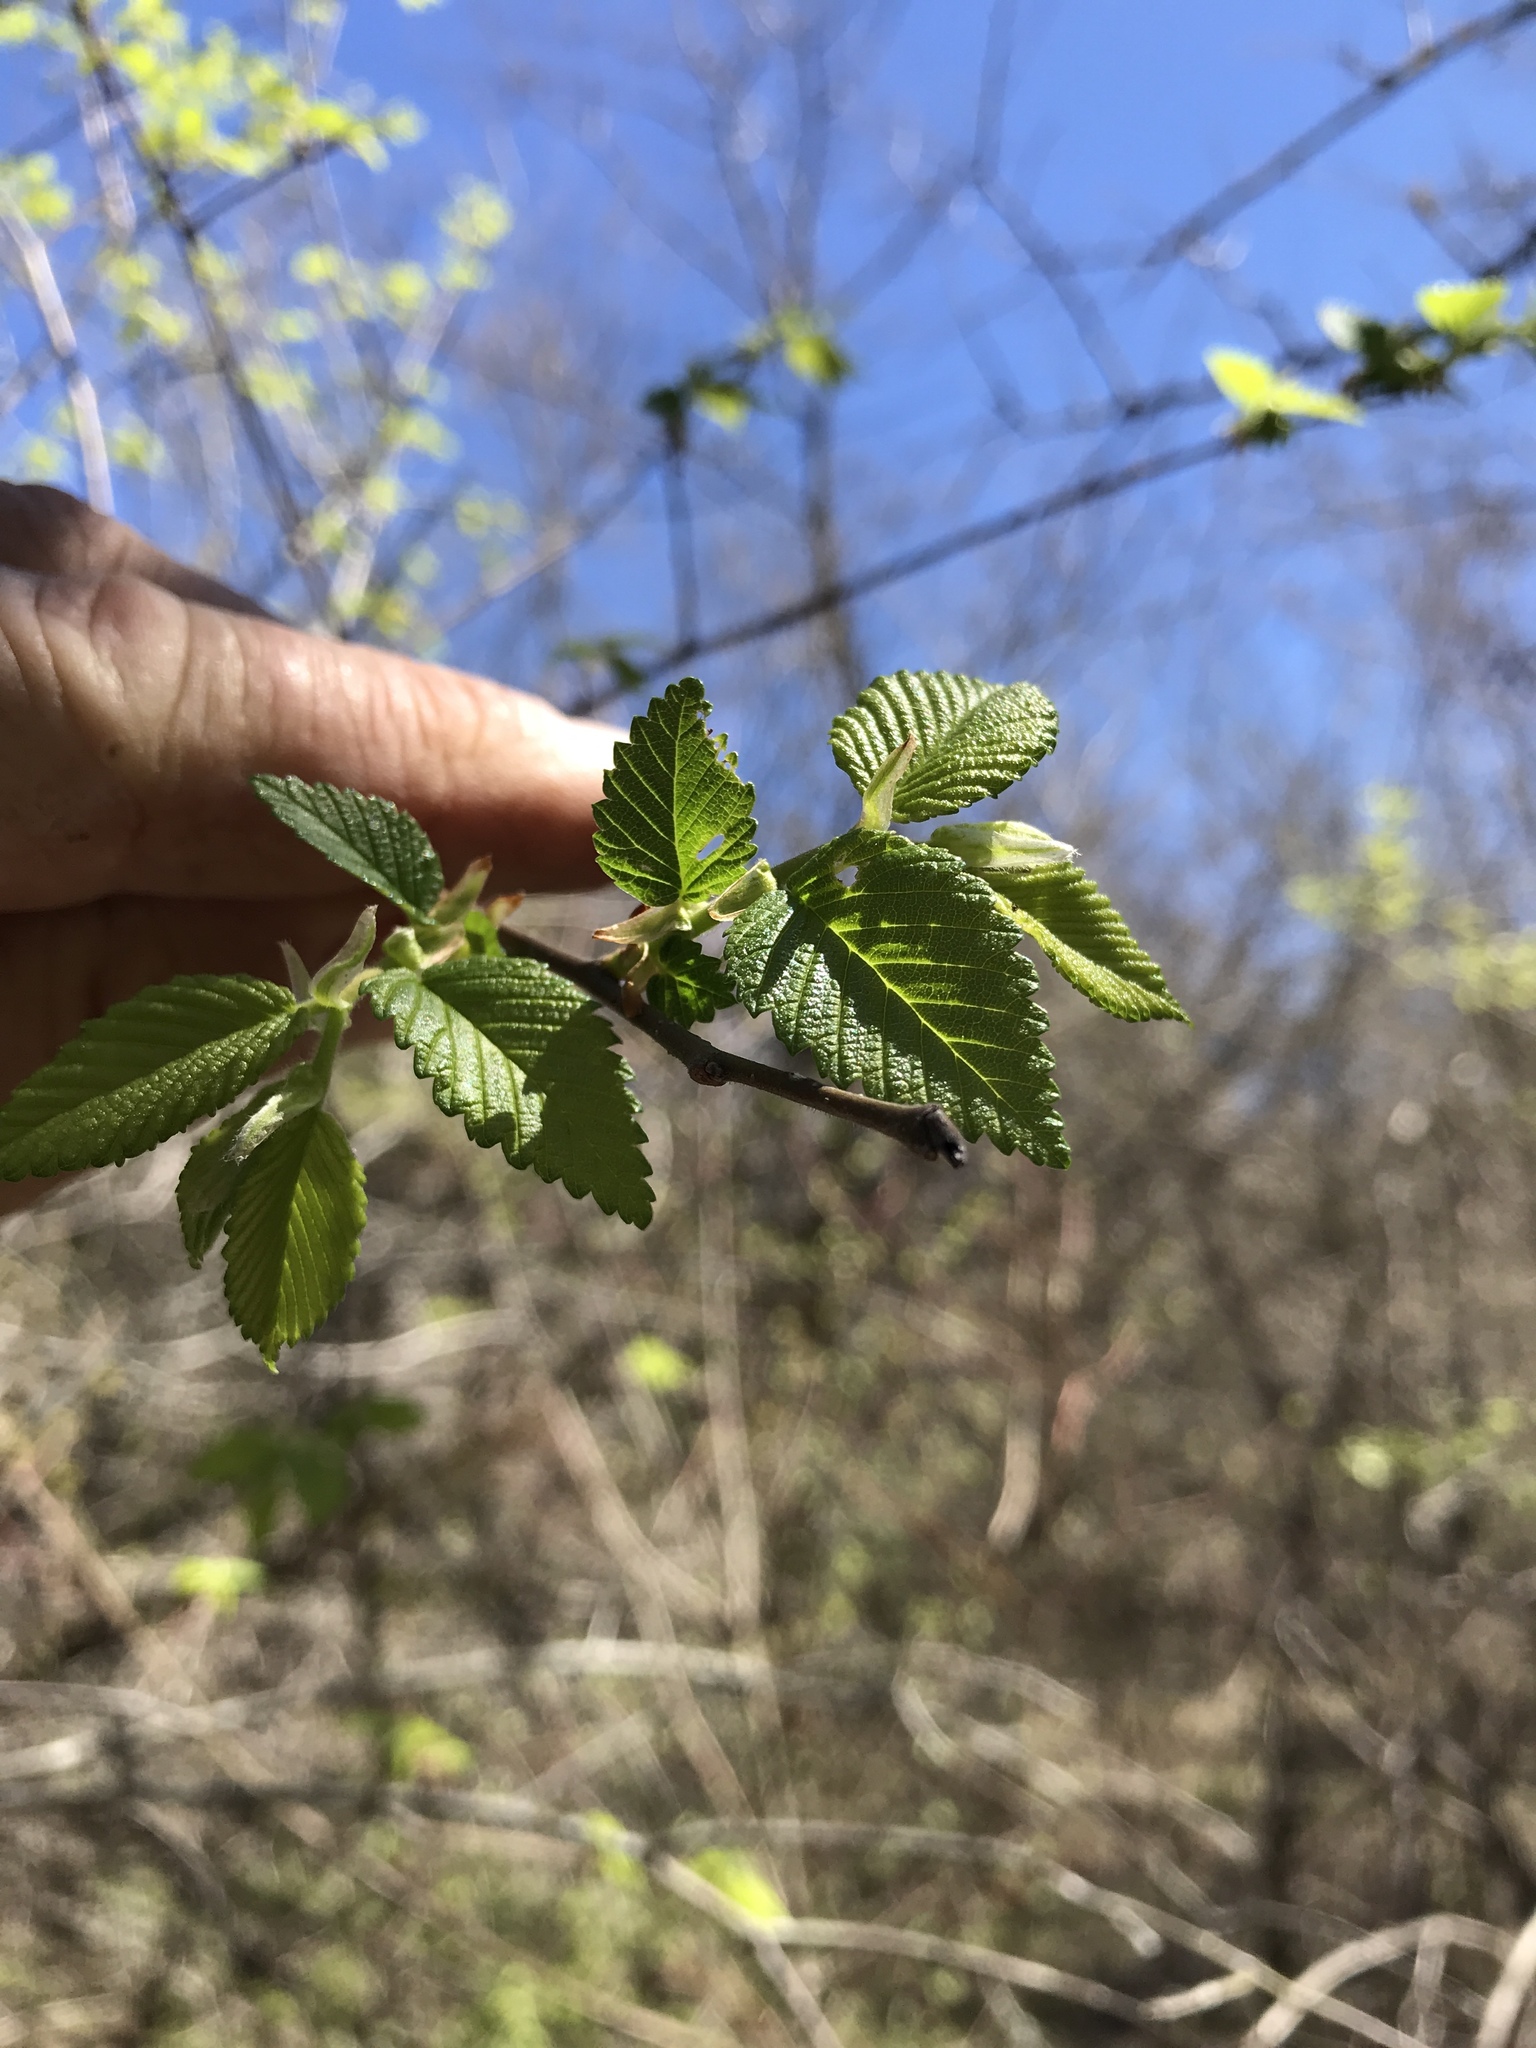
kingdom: Plantae
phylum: Tracheophyta
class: Magnoliopsida
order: Rosales
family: Ulmaceae
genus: Ulmus
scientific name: Ulmus americana
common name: American elm
